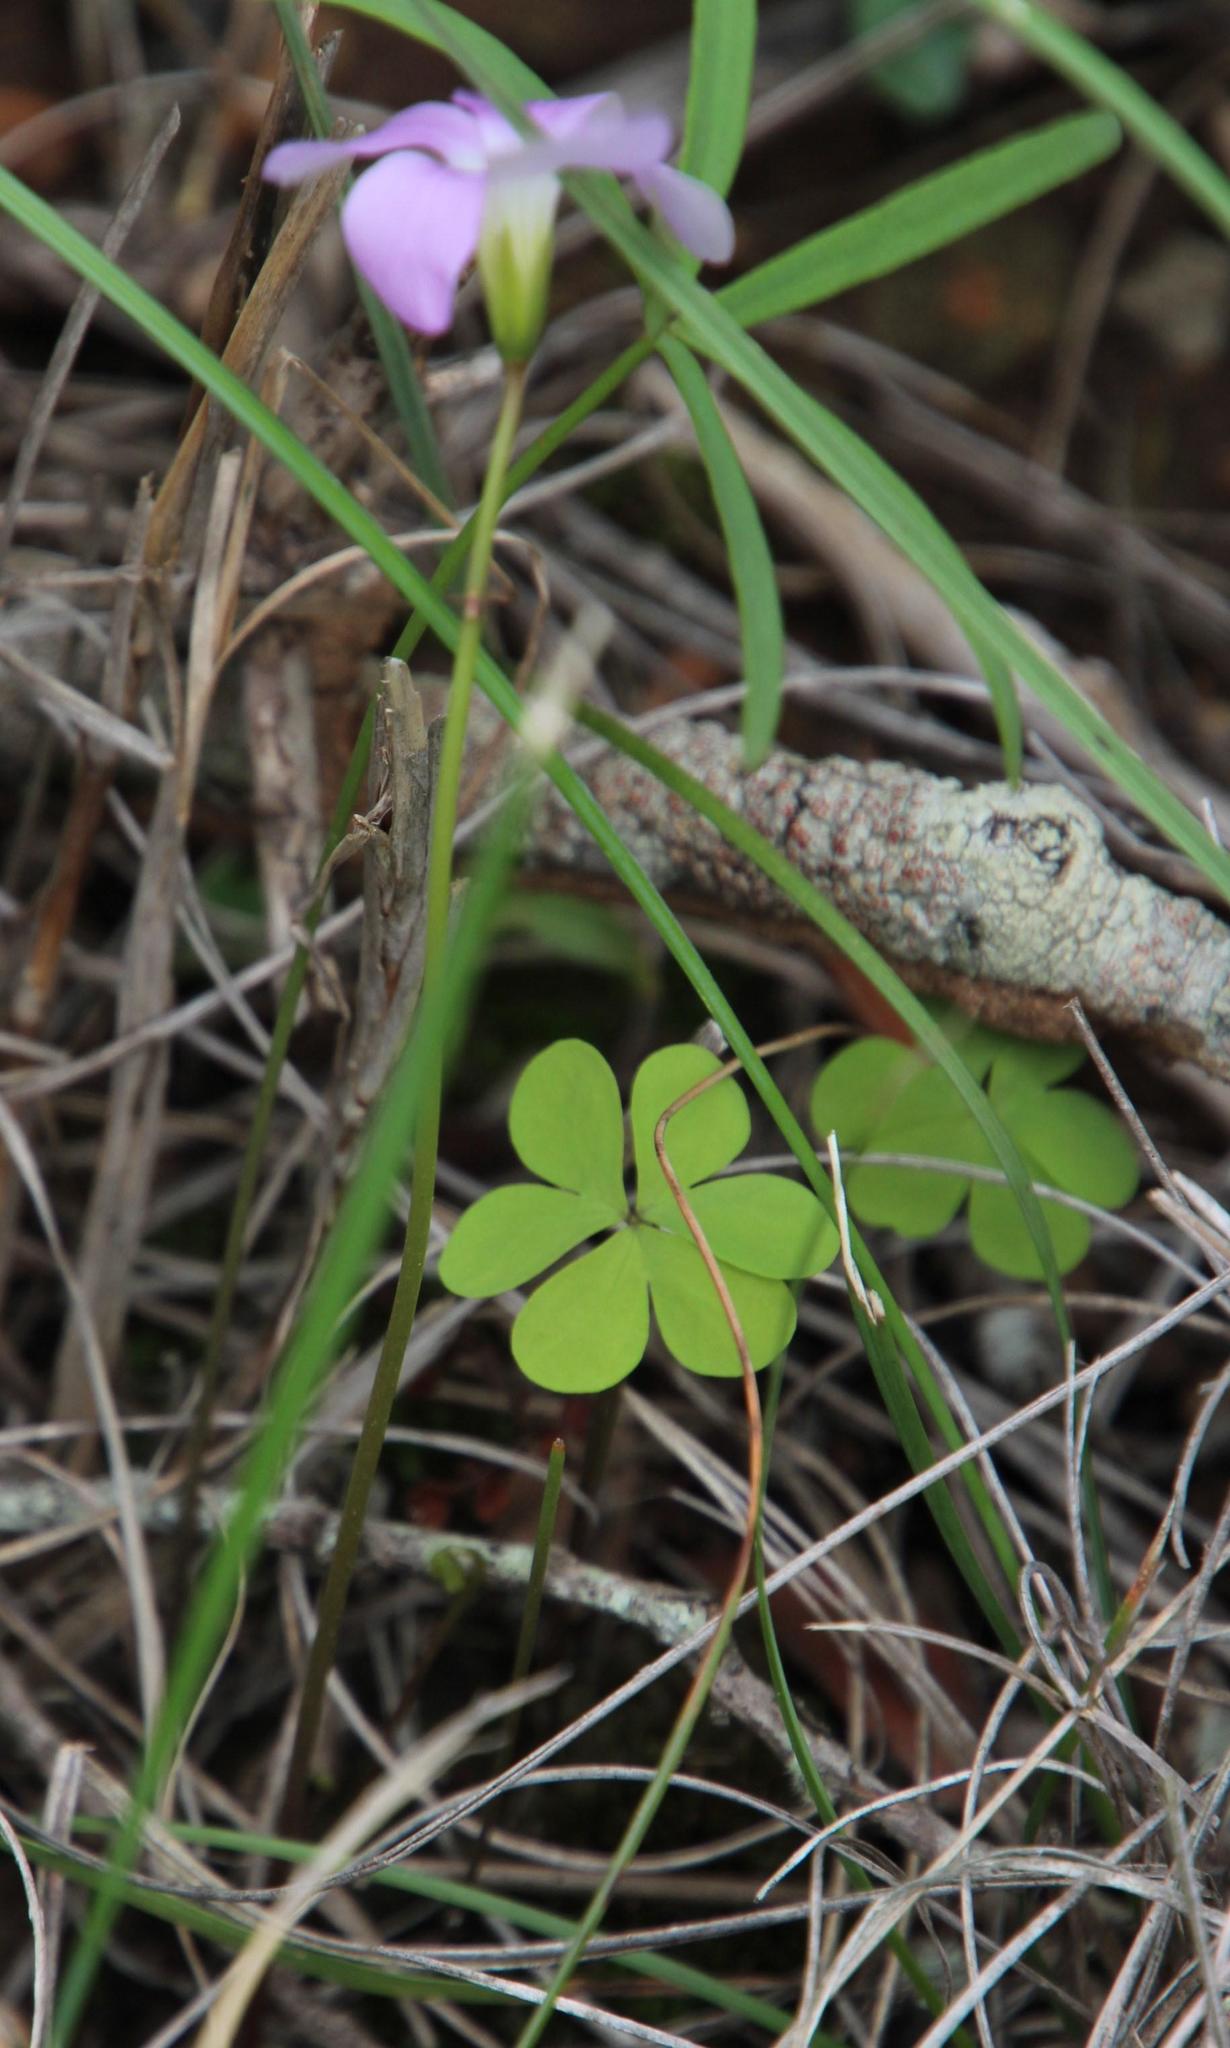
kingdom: Plantae
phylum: Tracheophyta
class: Magnoliopsida
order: Oxalidales
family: Oxalidaceae
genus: Oxalis
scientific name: Oxalis smithiana
